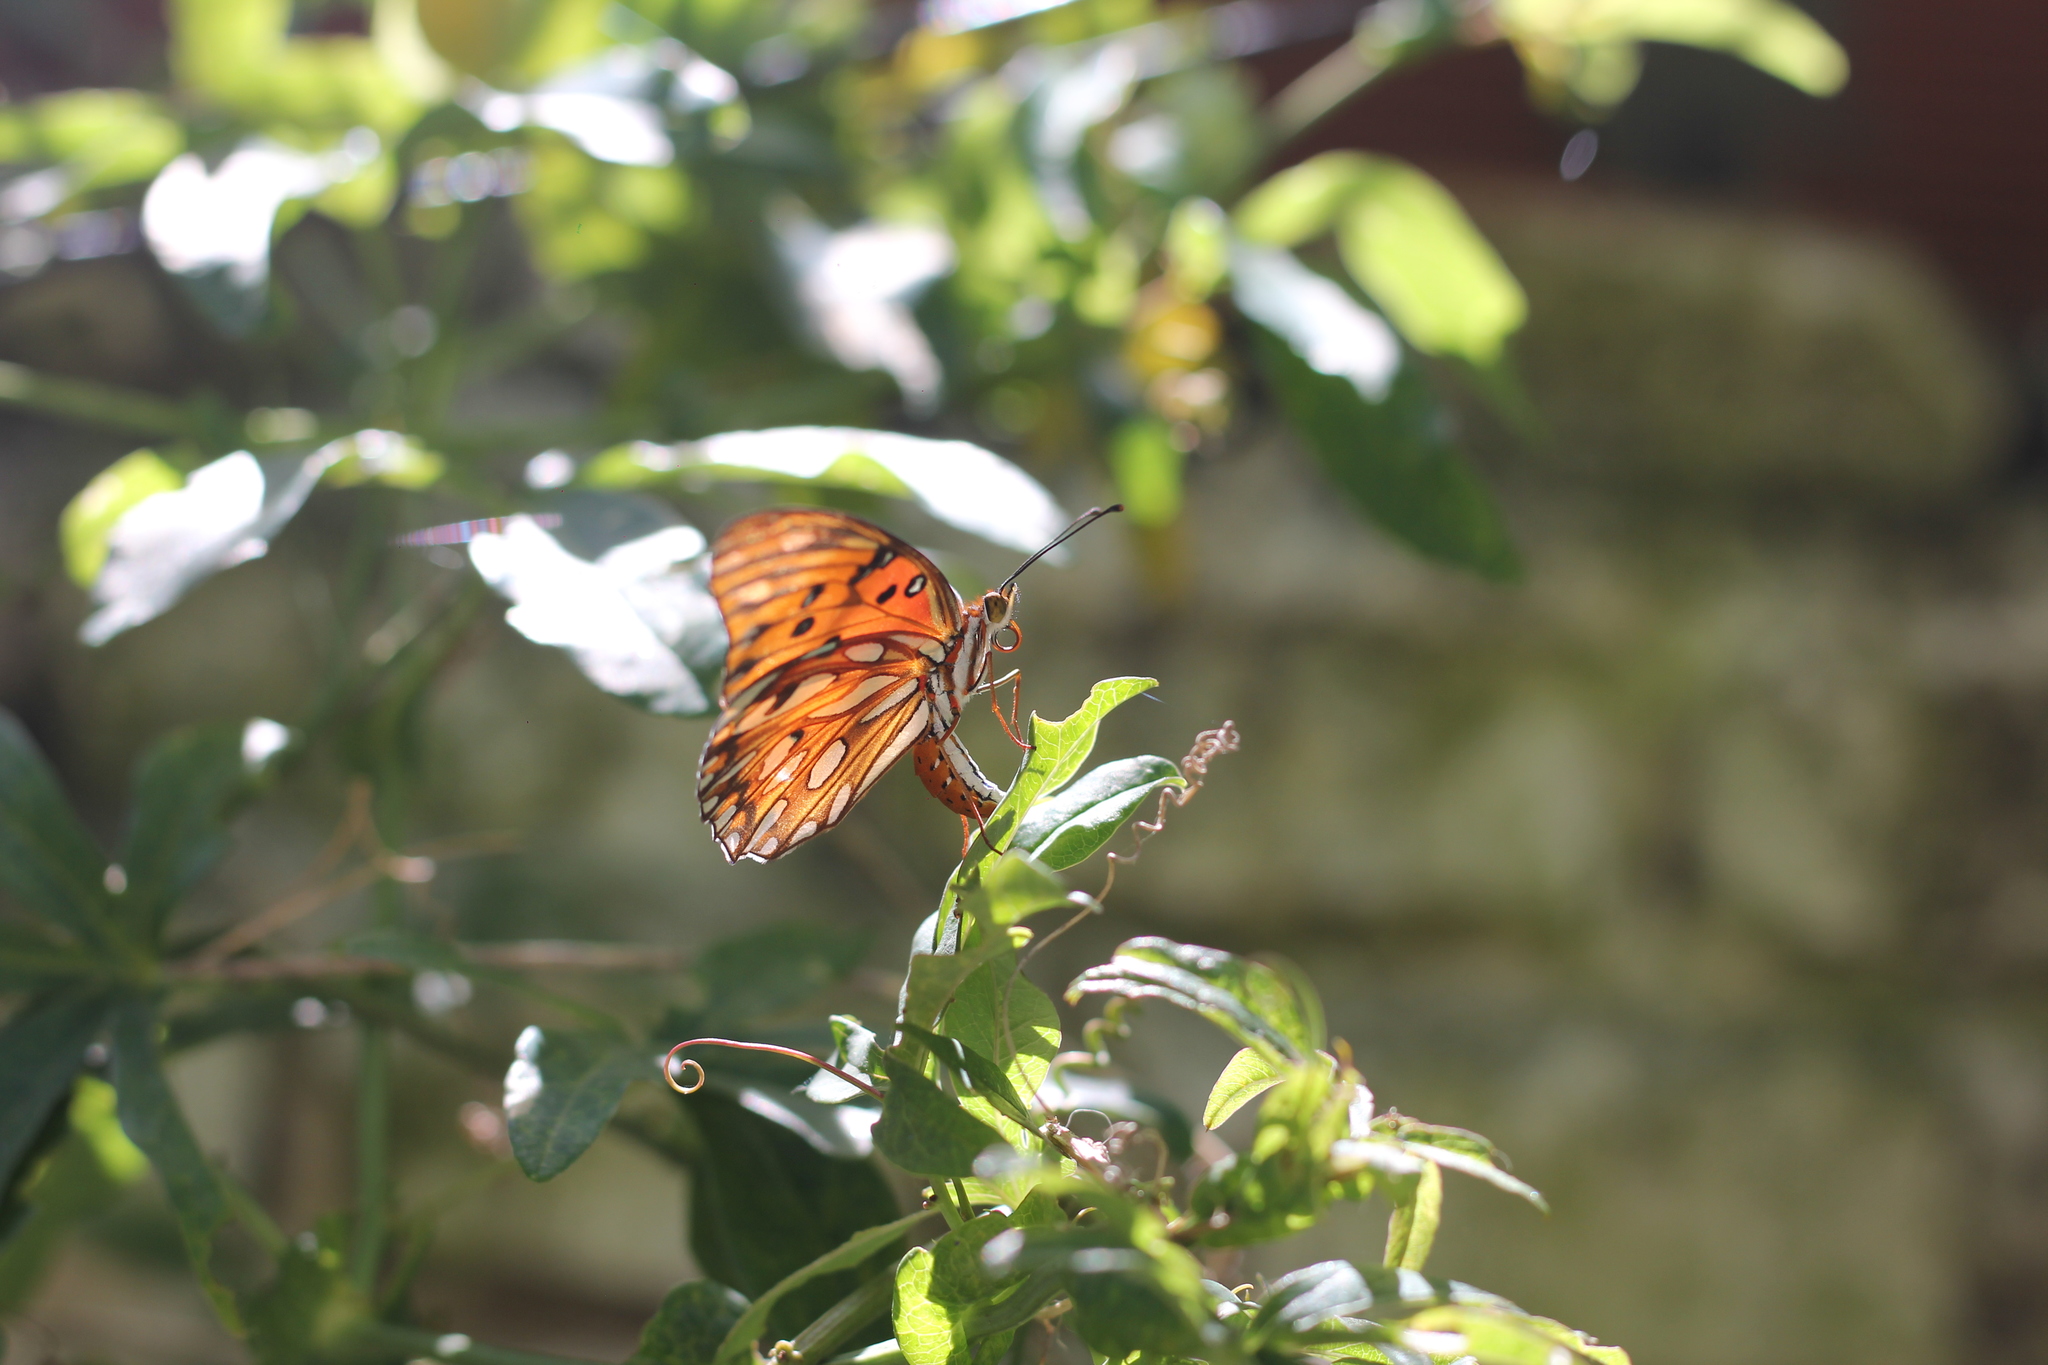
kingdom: Animalia
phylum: Arthropoda
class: Insecta
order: Lepidoptera
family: Nymphalidae
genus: Dione
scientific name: Dione vanillae
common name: Gulf fritillary
